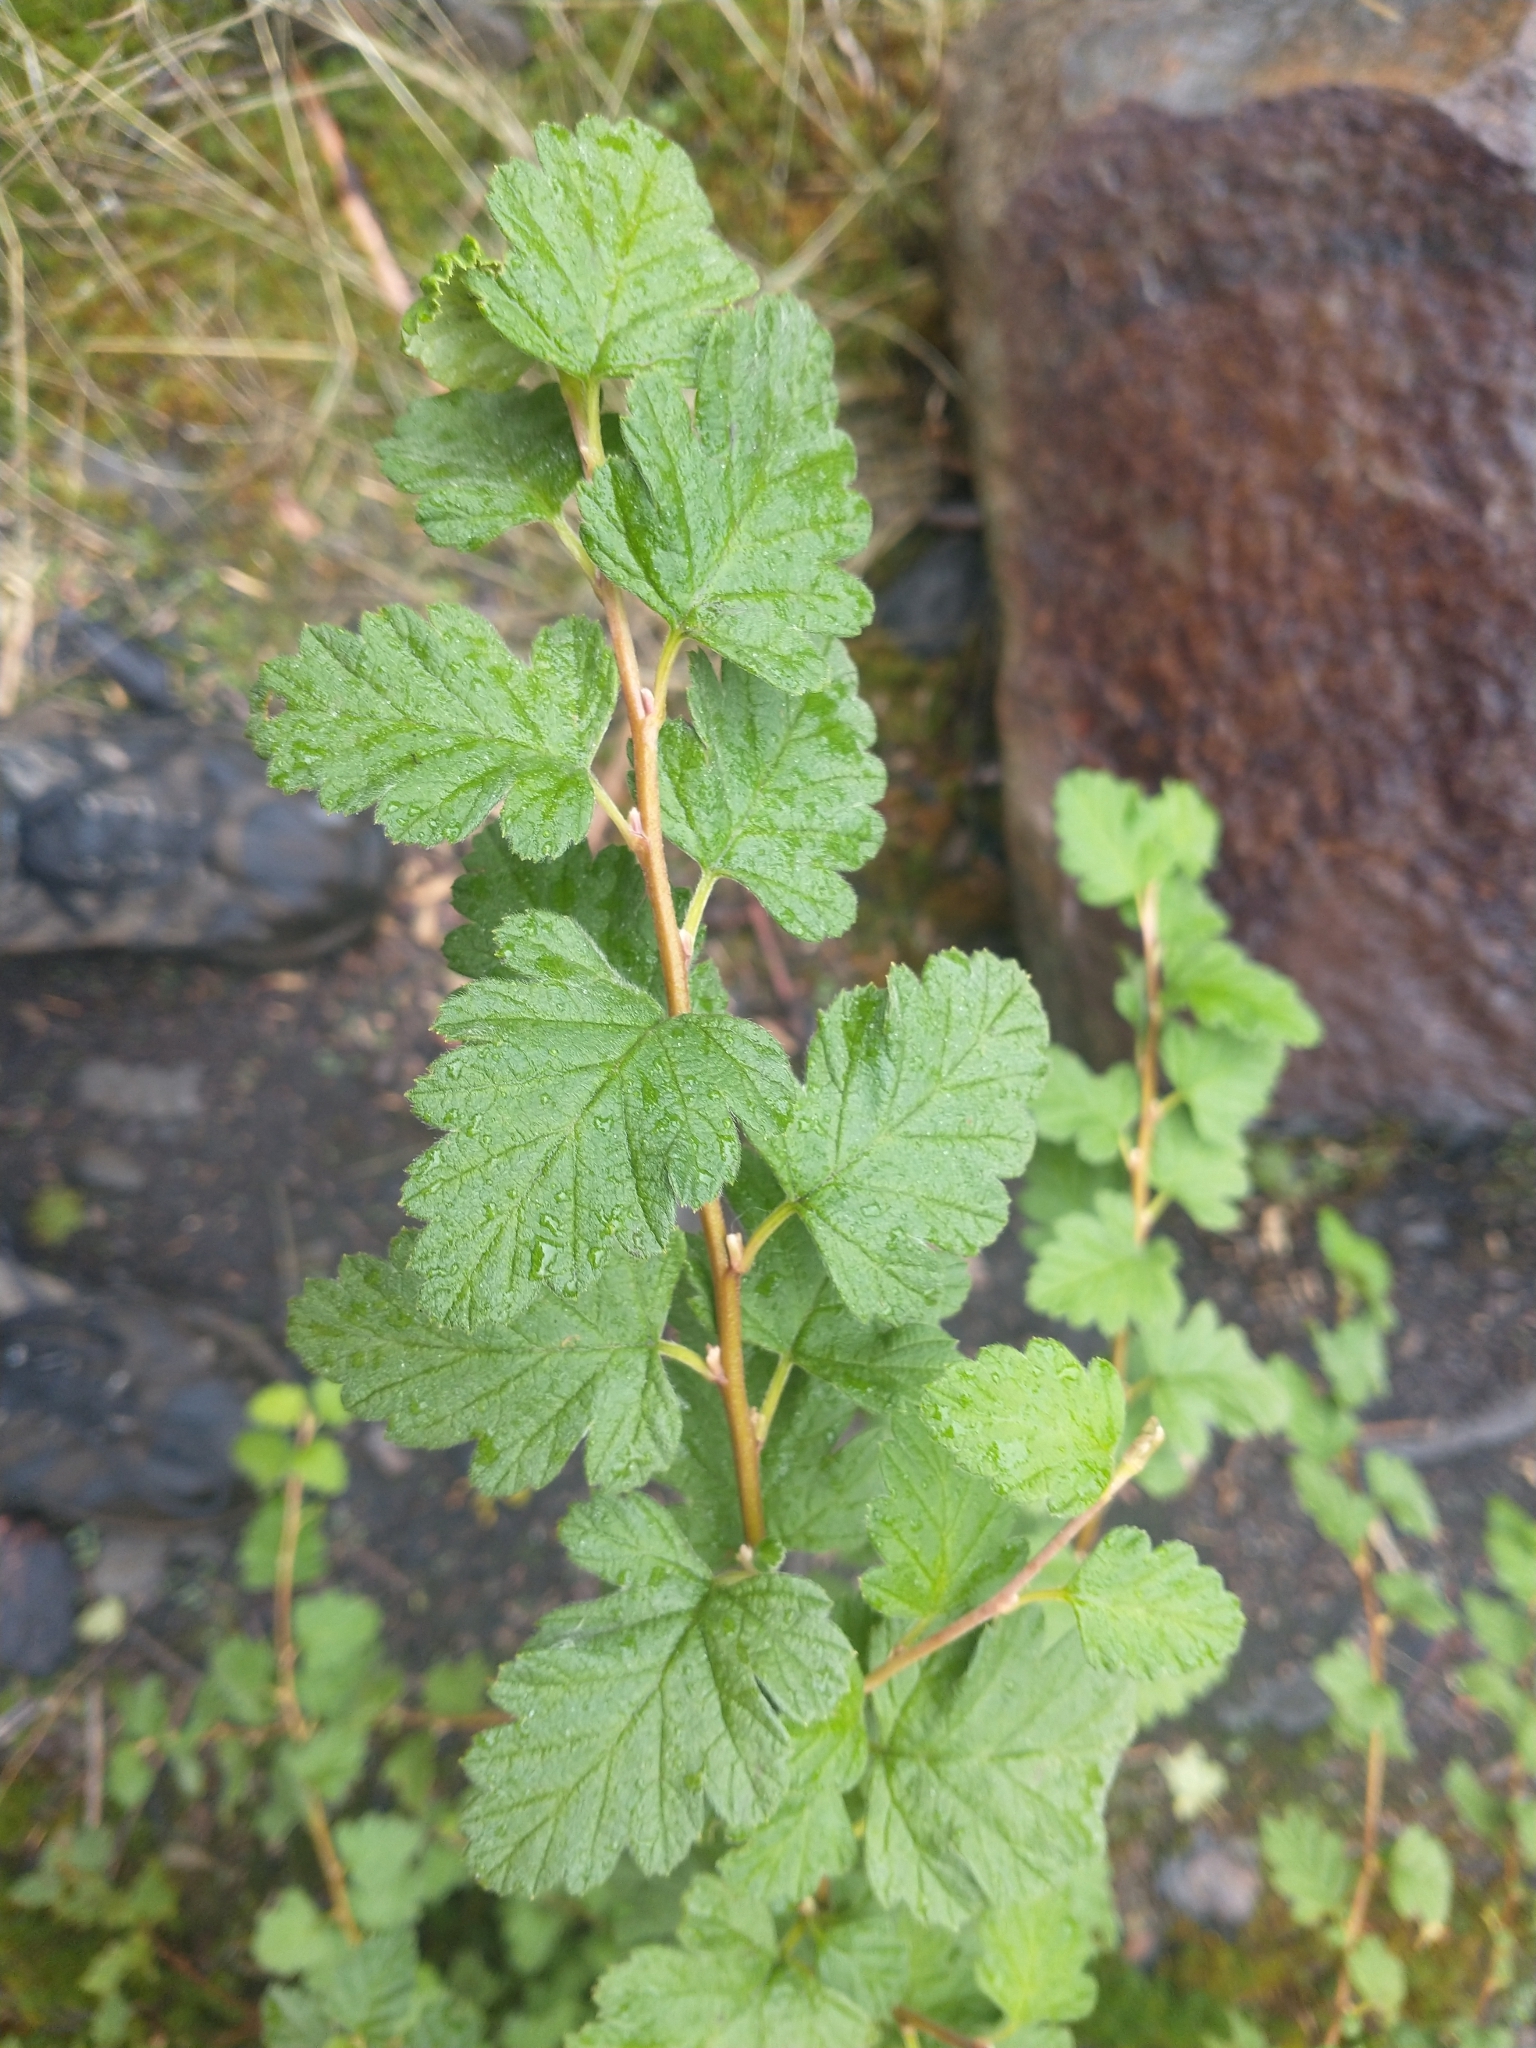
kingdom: Plantae
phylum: Tracheophyta
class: Magnoliopsida
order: Rosales
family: Rosaceae
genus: Holodiscus
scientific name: Holodiscus discolor
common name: Oceanspray
